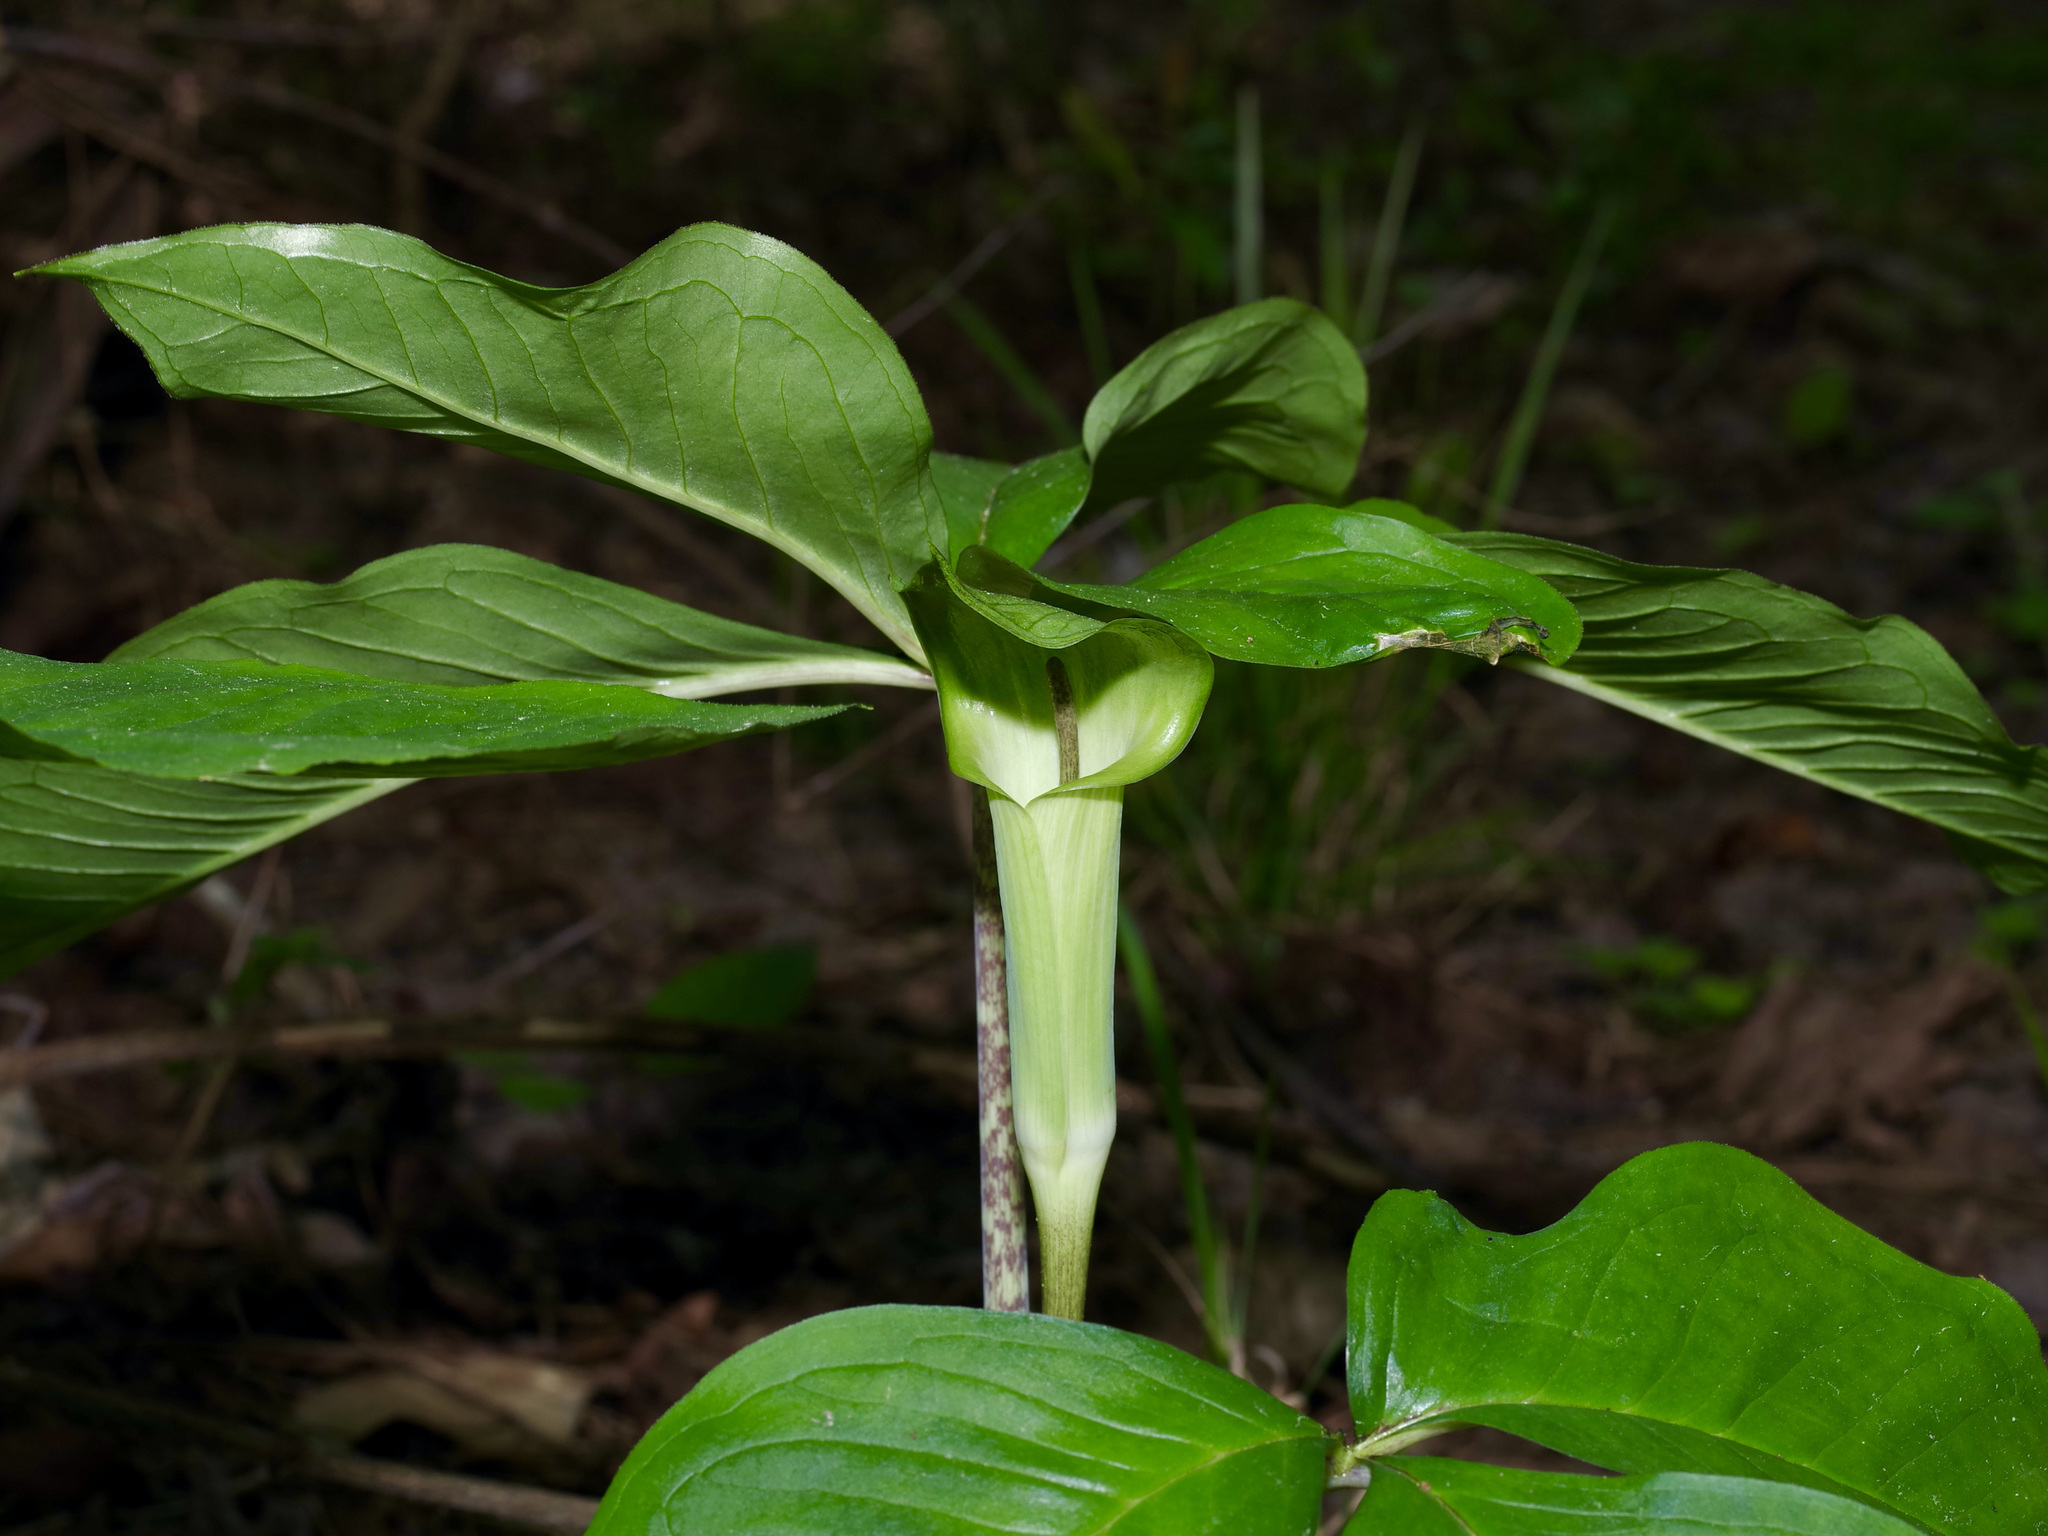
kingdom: Plantae
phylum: Tracheophyta
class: Liliopsida
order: Alismatales
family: Araceae
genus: Arisaema
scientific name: Arisaema quinatum
